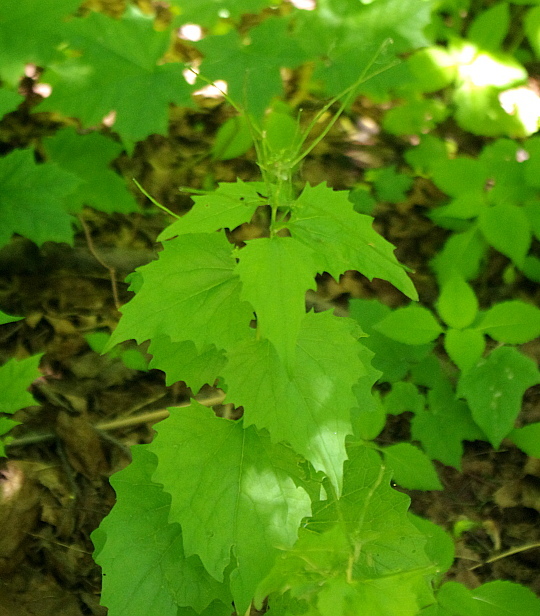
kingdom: Plantae
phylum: Tracheophyta
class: Magnoliopsida
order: Brassicales
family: Brassicaceae
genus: Alliaria
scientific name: Alliaria petiolata
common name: Garlic mustard
